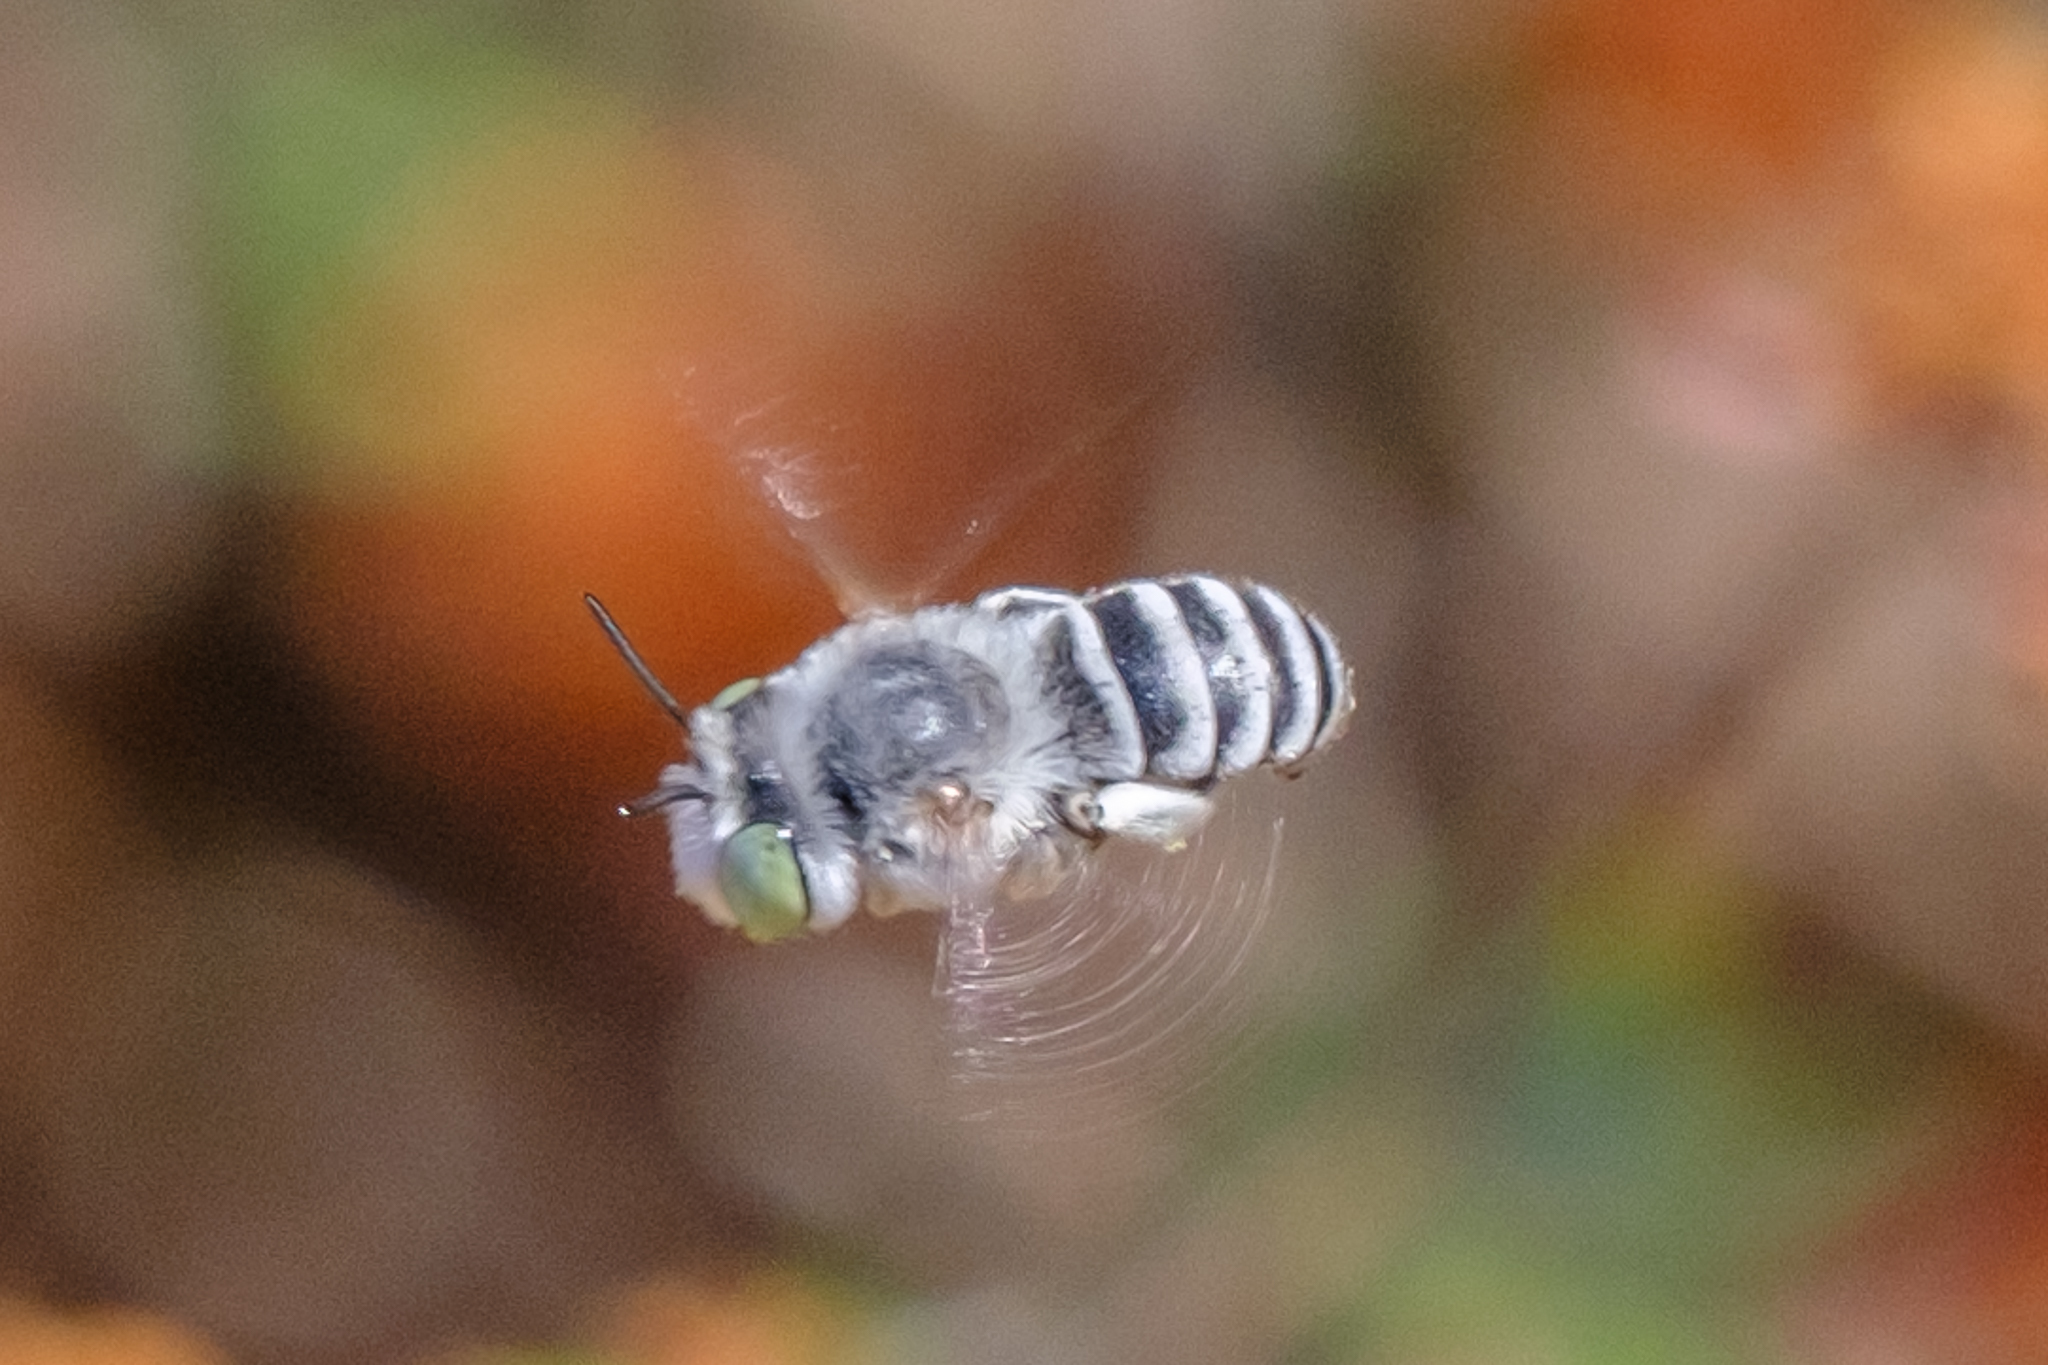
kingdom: Animalia
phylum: Arthropoda
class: Insecta
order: Hymenoptera
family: Apidae
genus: Anthophora
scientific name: Anthophora curta
